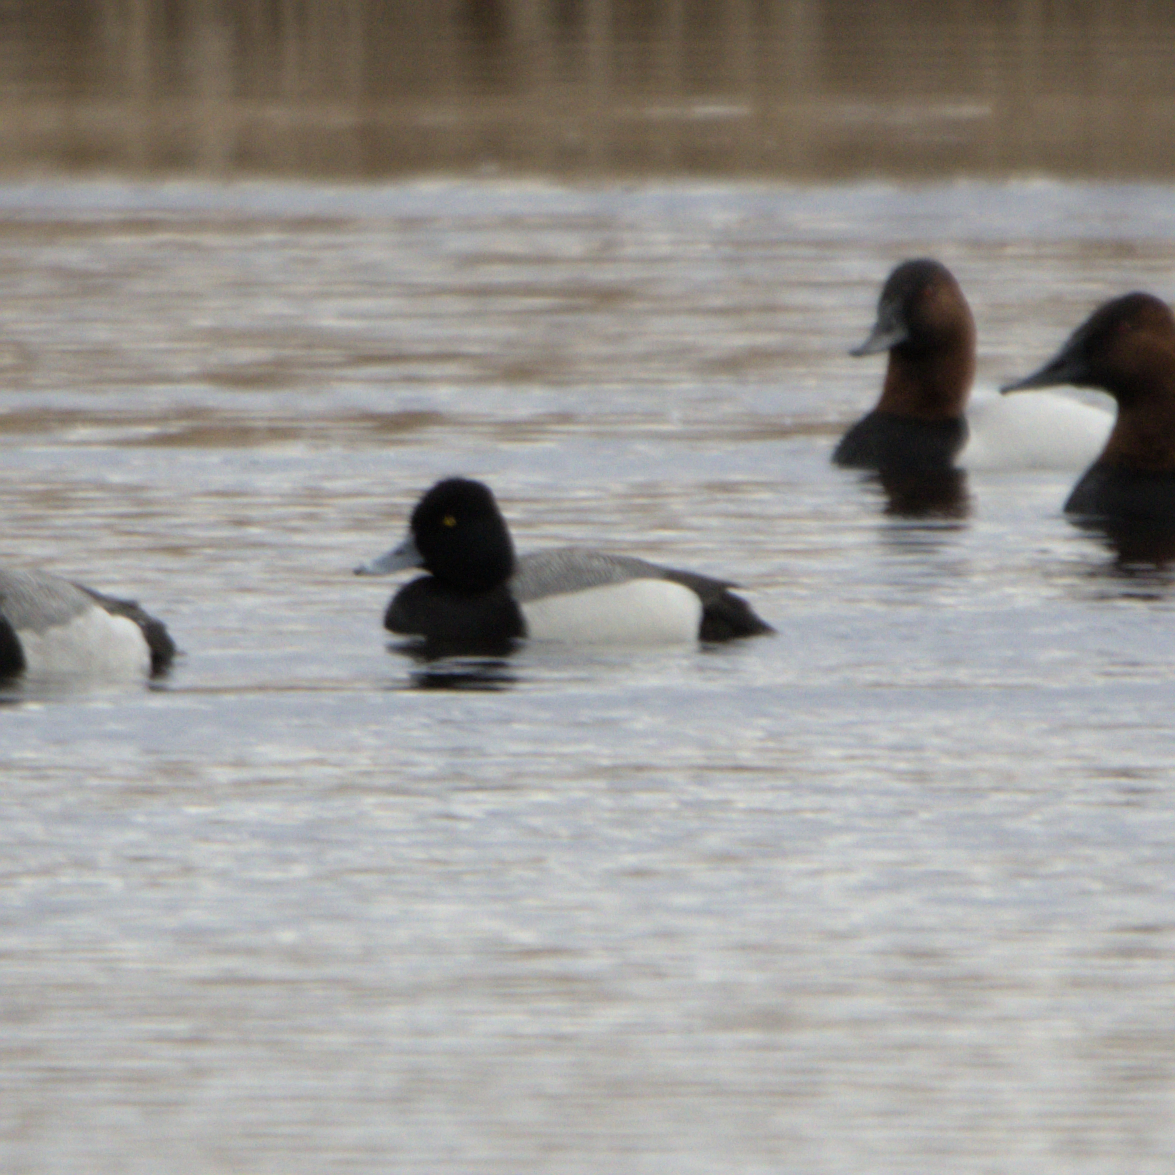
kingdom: Animalia
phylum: Chordata
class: Aves
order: Anseriformes
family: Anatidae
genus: Aythya
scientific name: Aythya affinis
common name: Lesser scaup
